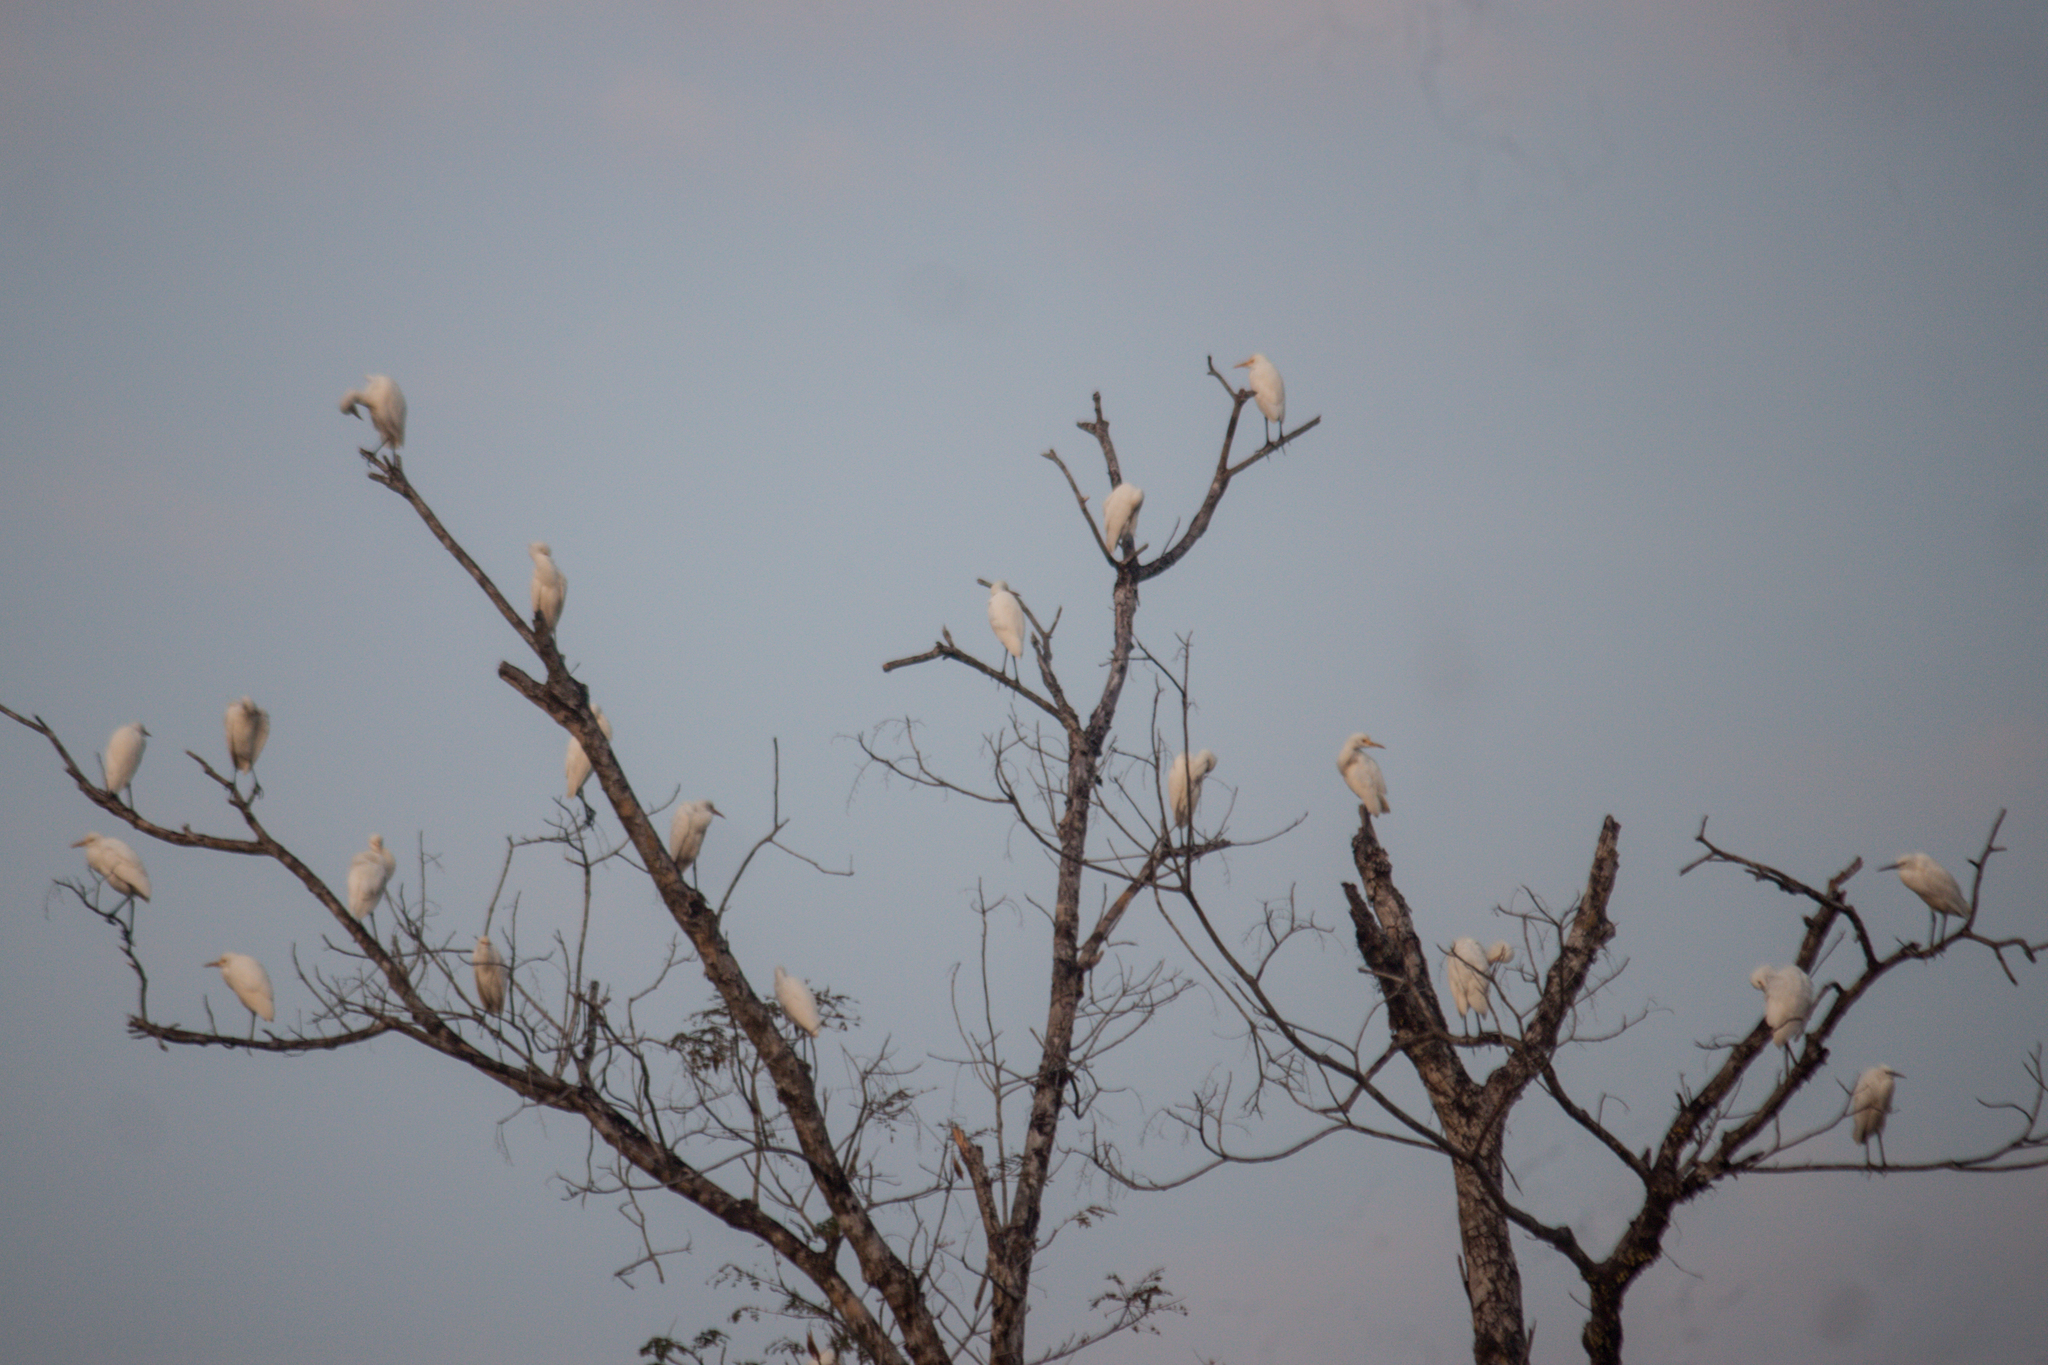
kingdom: Animalia
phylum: Chordata
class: Aves
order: Pelecaniformes
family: Ardeidae
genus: Bubulcus
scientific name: Bubulcus coromandus
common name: Eastern cattle egret
